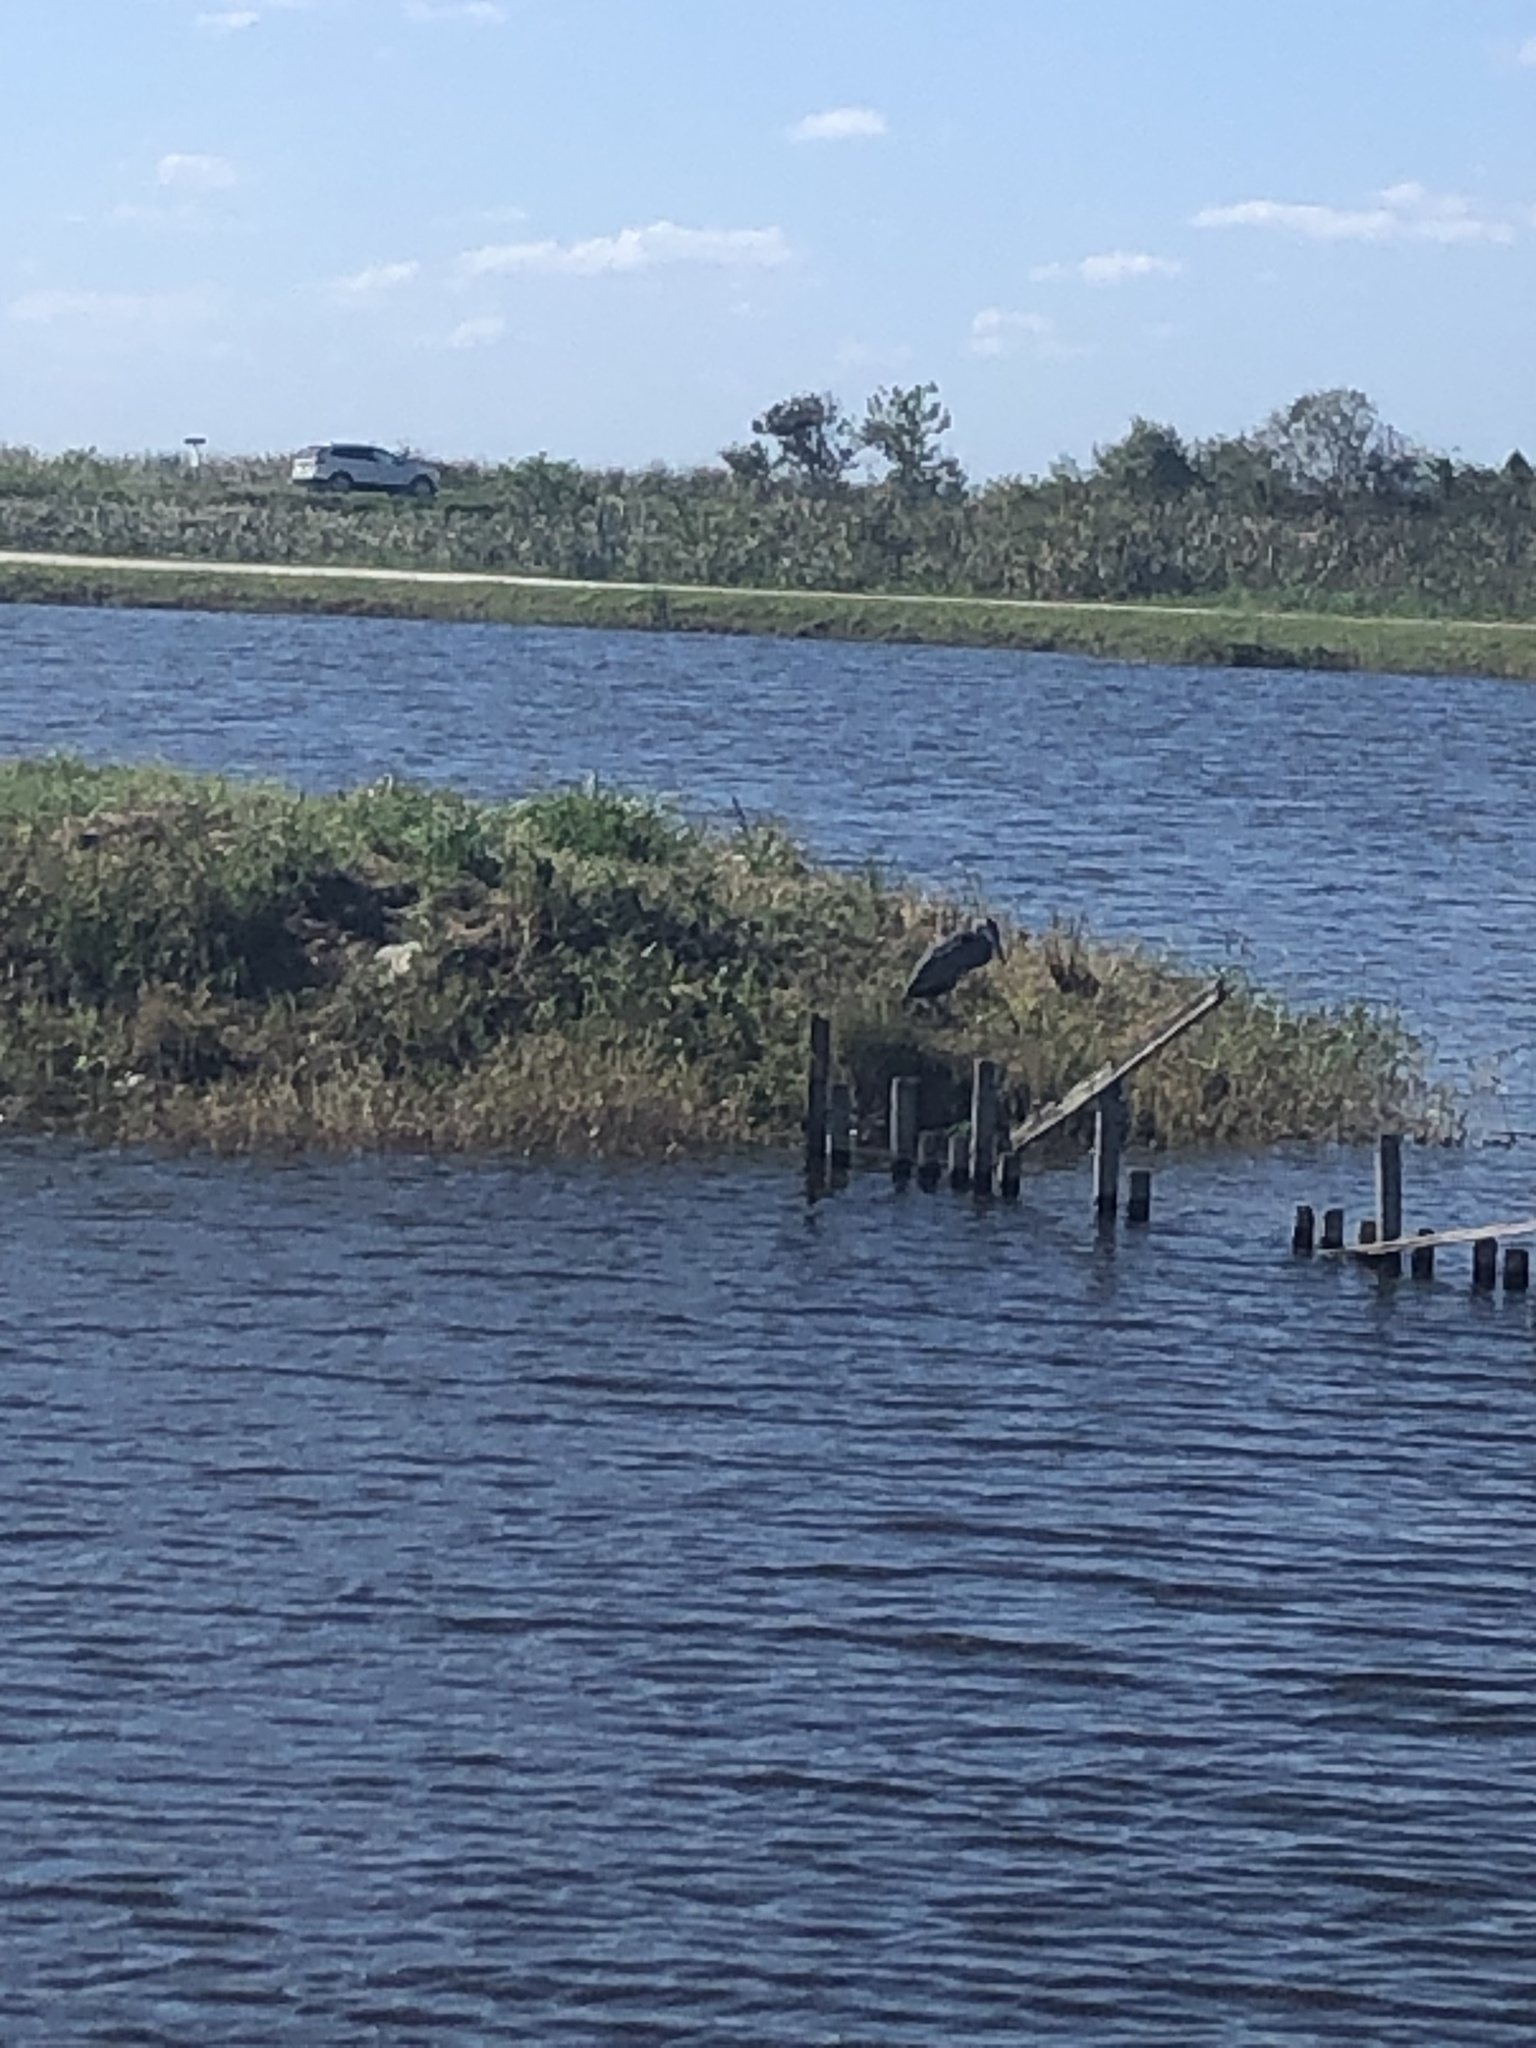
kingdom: Animalia
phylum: Chordata
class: Aves
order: Pelecaniformes
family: Ardeidae
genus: Ardea
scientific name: Ardea herodias
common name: Great blue heron
